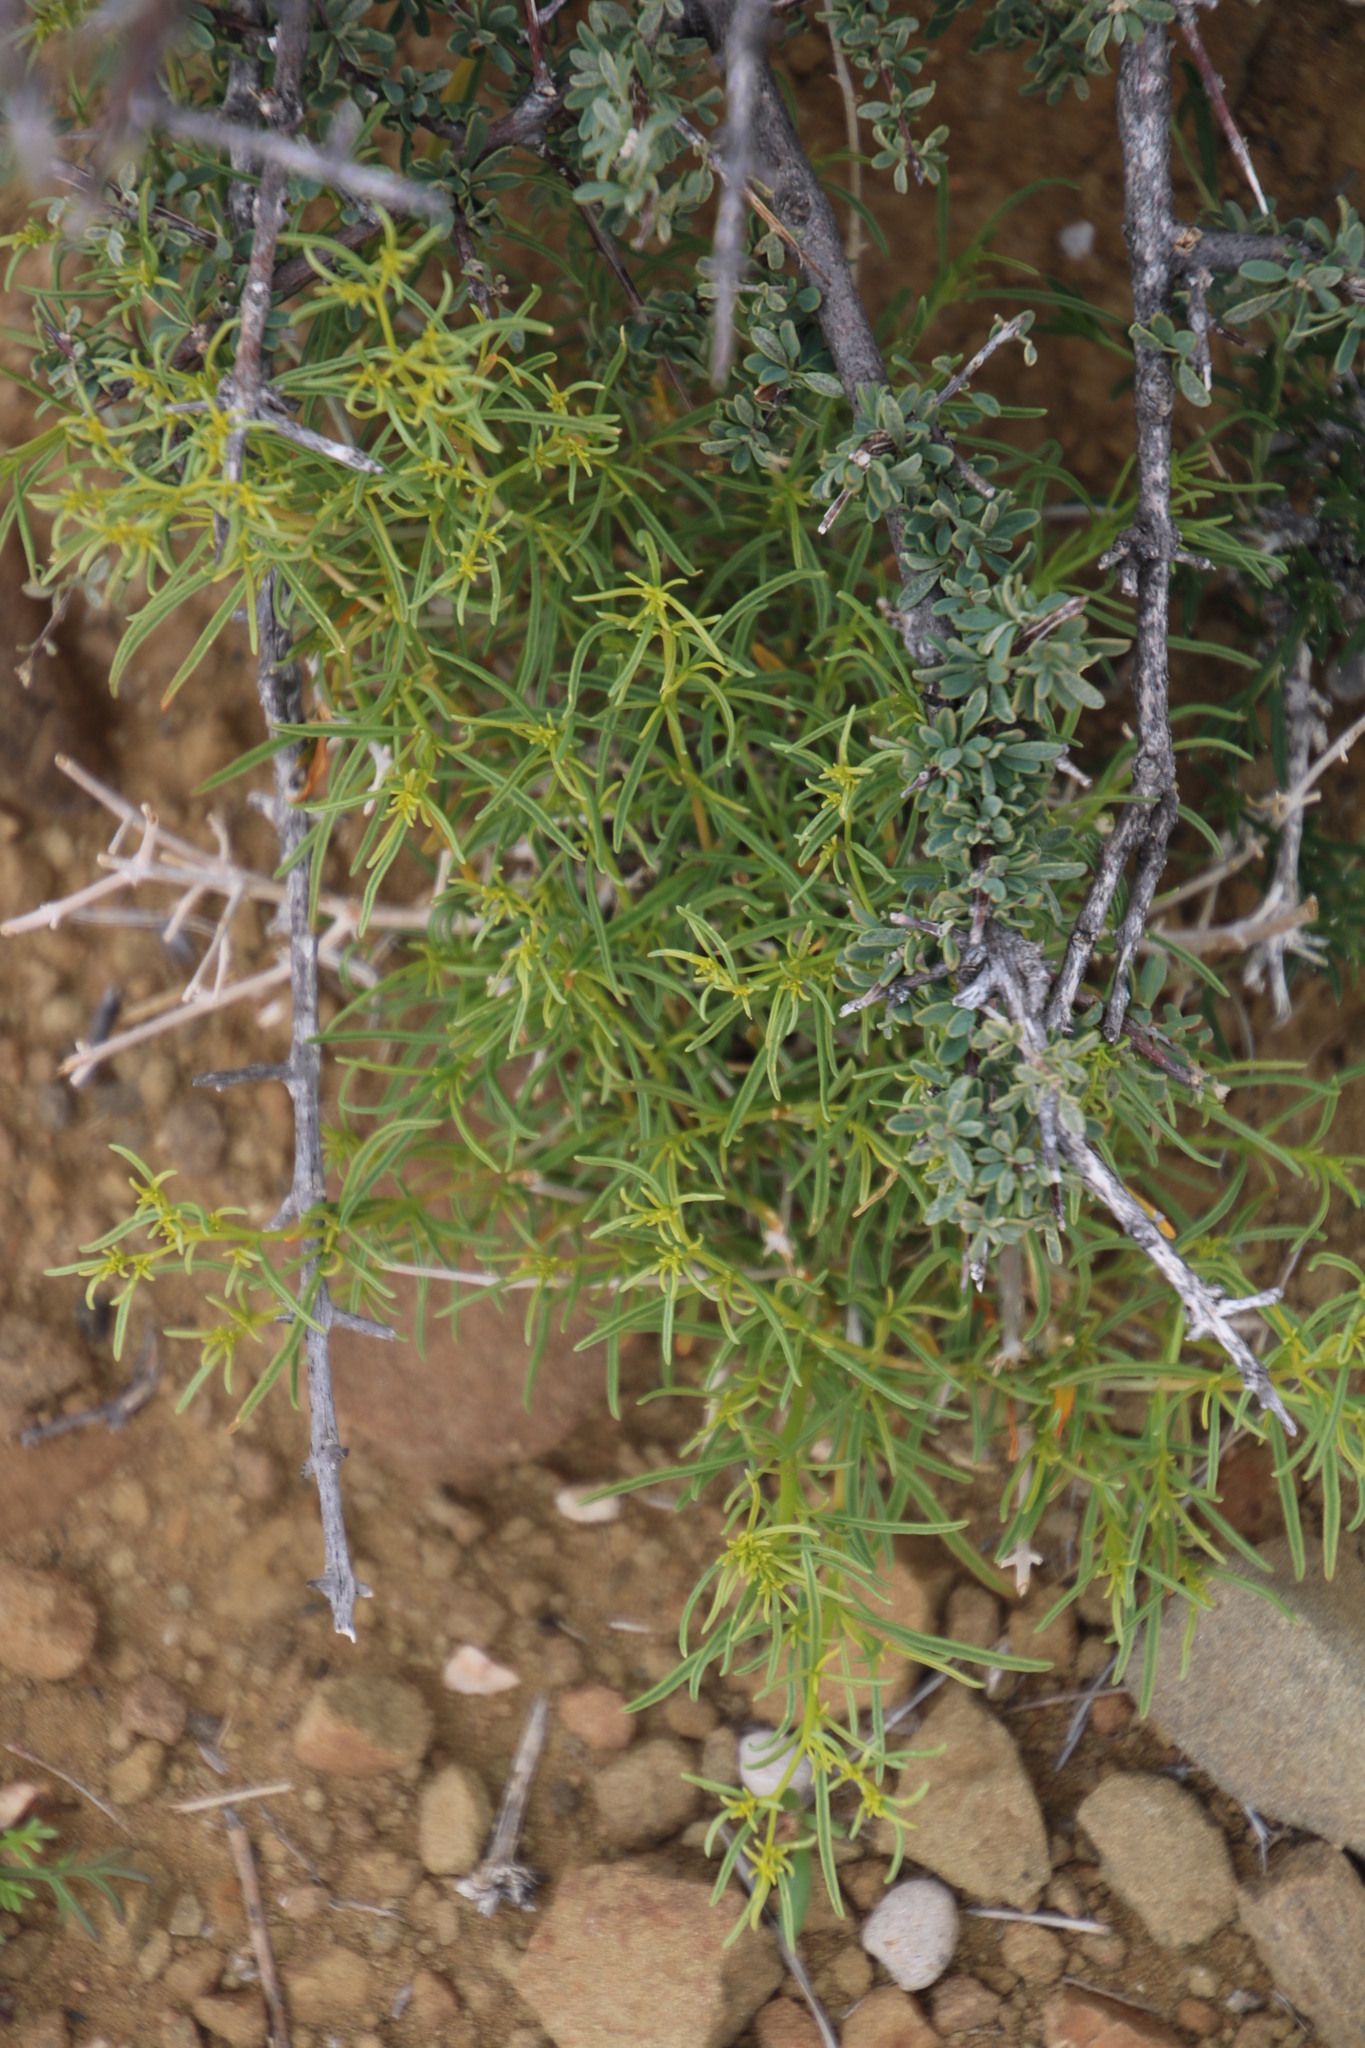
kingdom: Plantae
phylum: Tracheophyta
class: Magnoliopsida
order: Caryophyllales
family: Aizoaceae
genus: Aizoon
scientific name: Aizoon africanum
